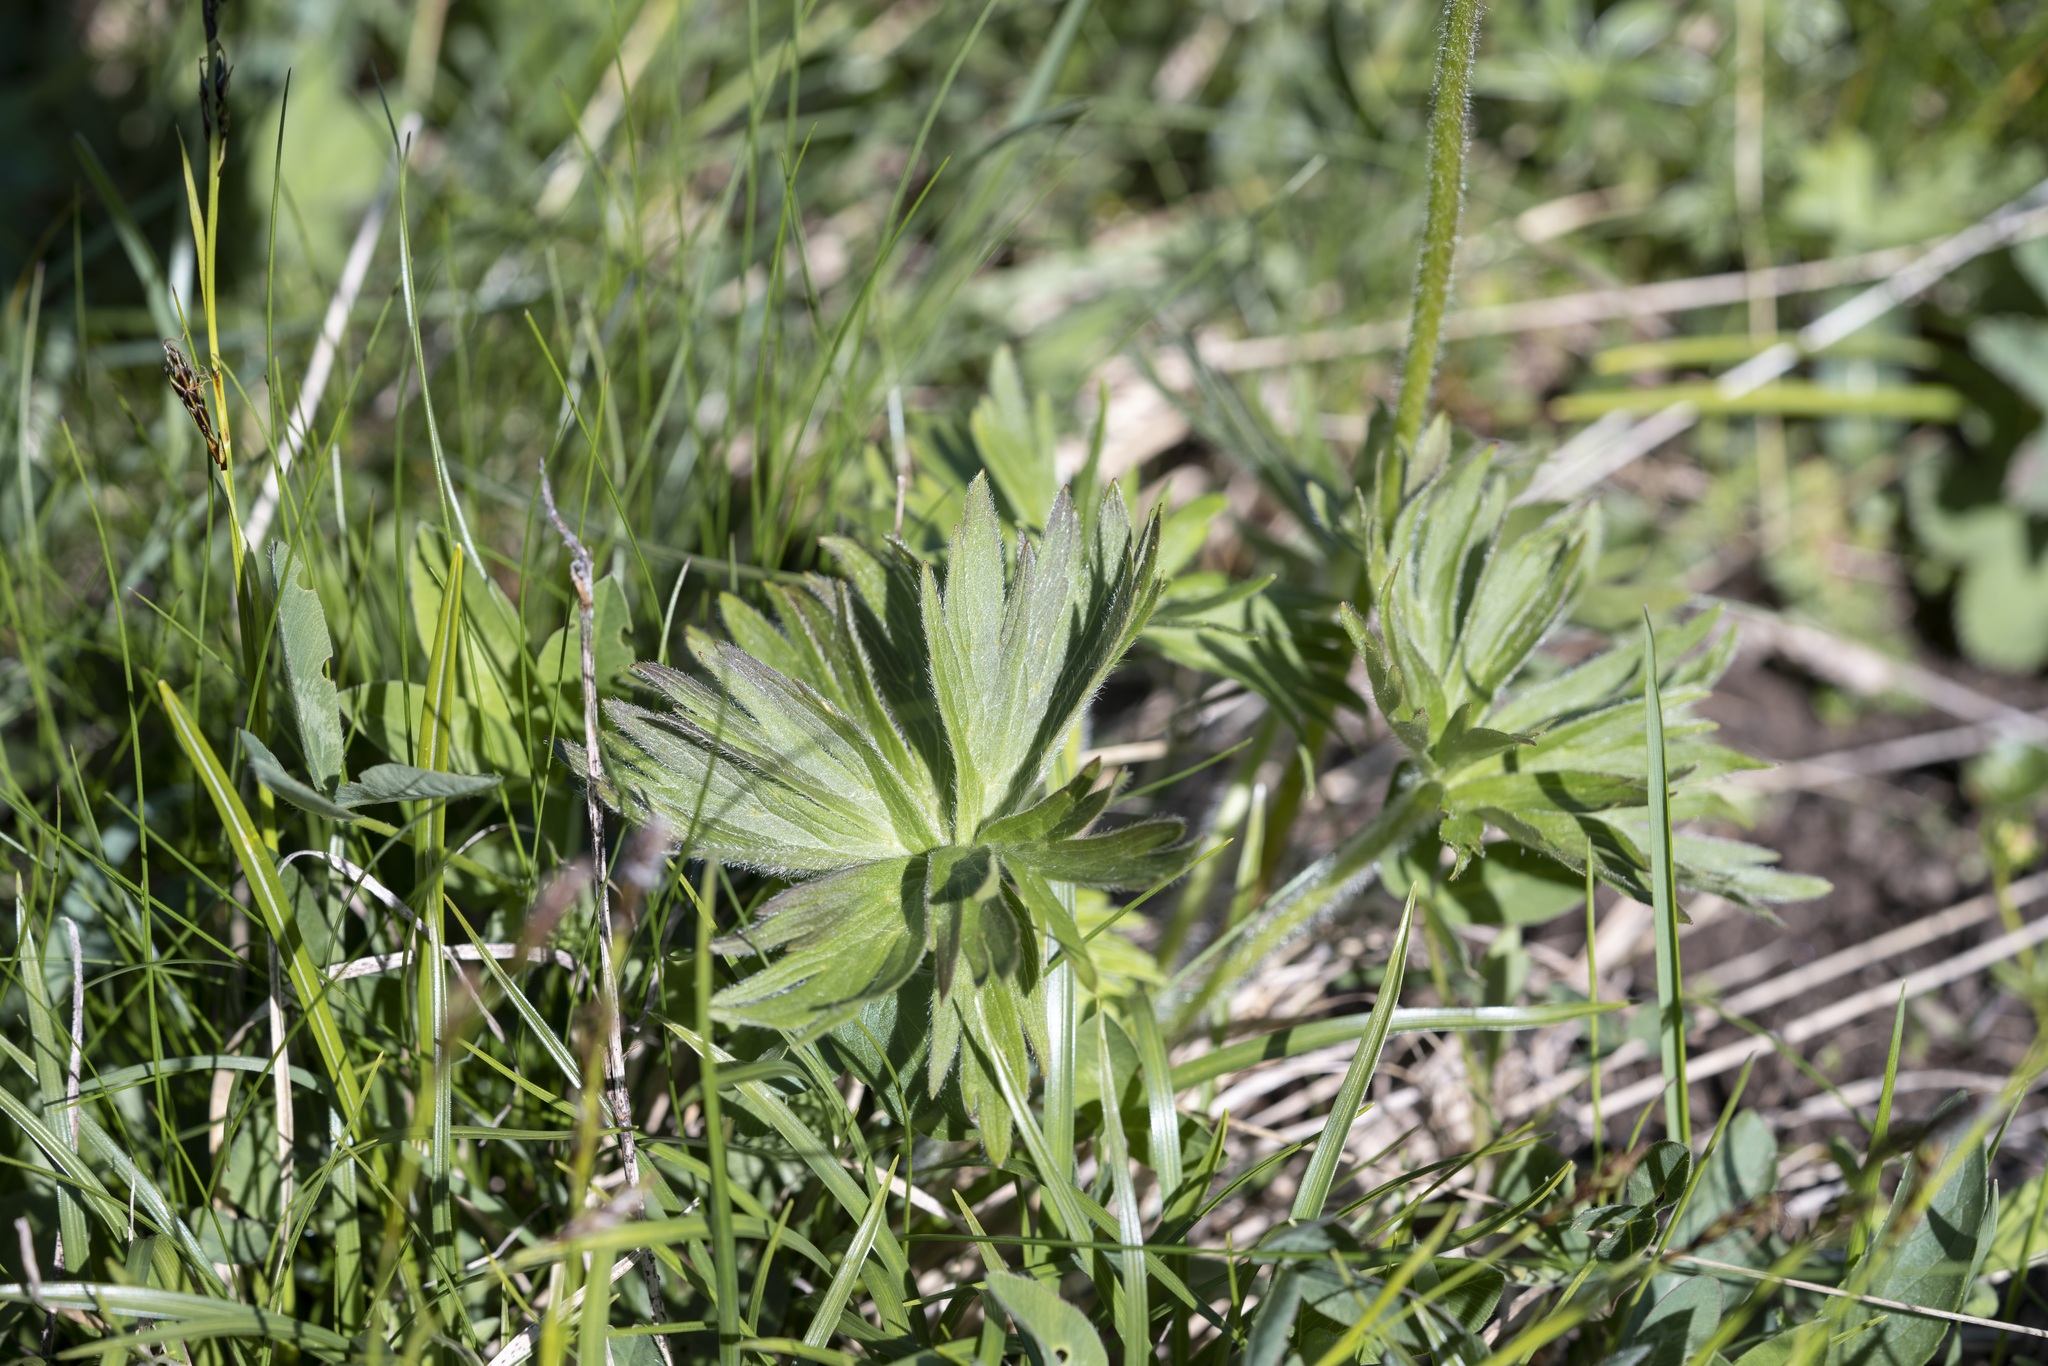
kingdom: Plantae
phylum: Tracheophyta
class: Magnoliopsida
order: Ranunculales
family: Ranunculaceae
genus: Anemonastrum
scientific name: Anemonastrum narcissiflorum
